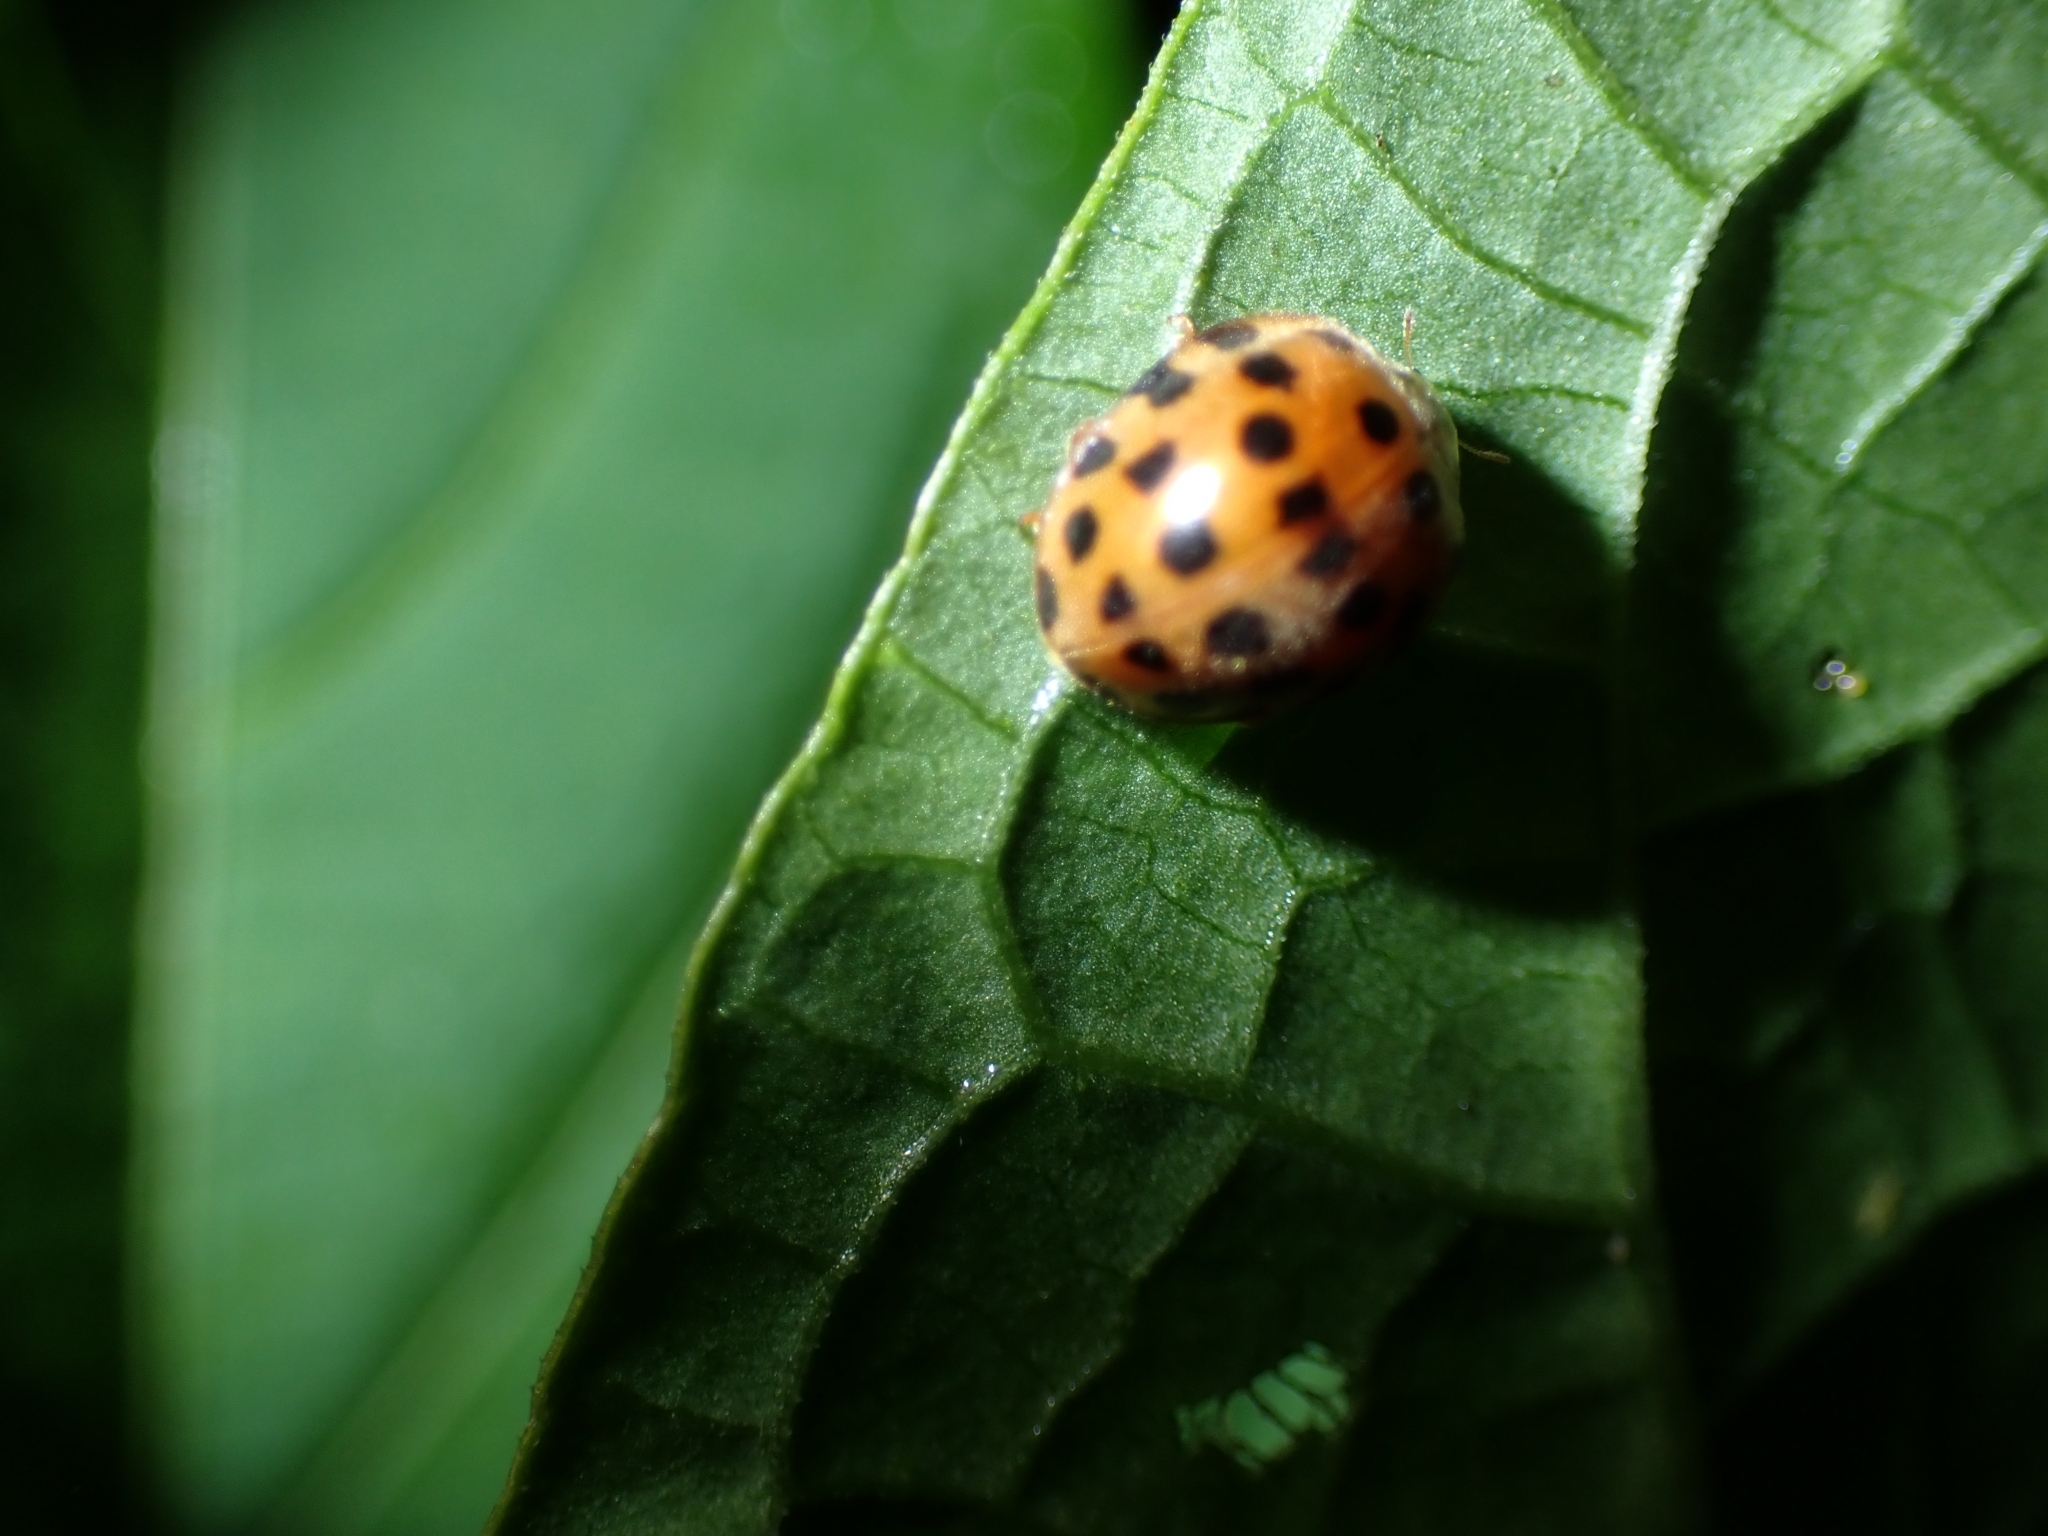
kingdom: Animalia
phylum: Arthropoda
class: Insecta
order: Coleoptera
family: Coccinellidae
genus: Henosepilachna
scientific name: Henosepilachna vigintioctopunctata
